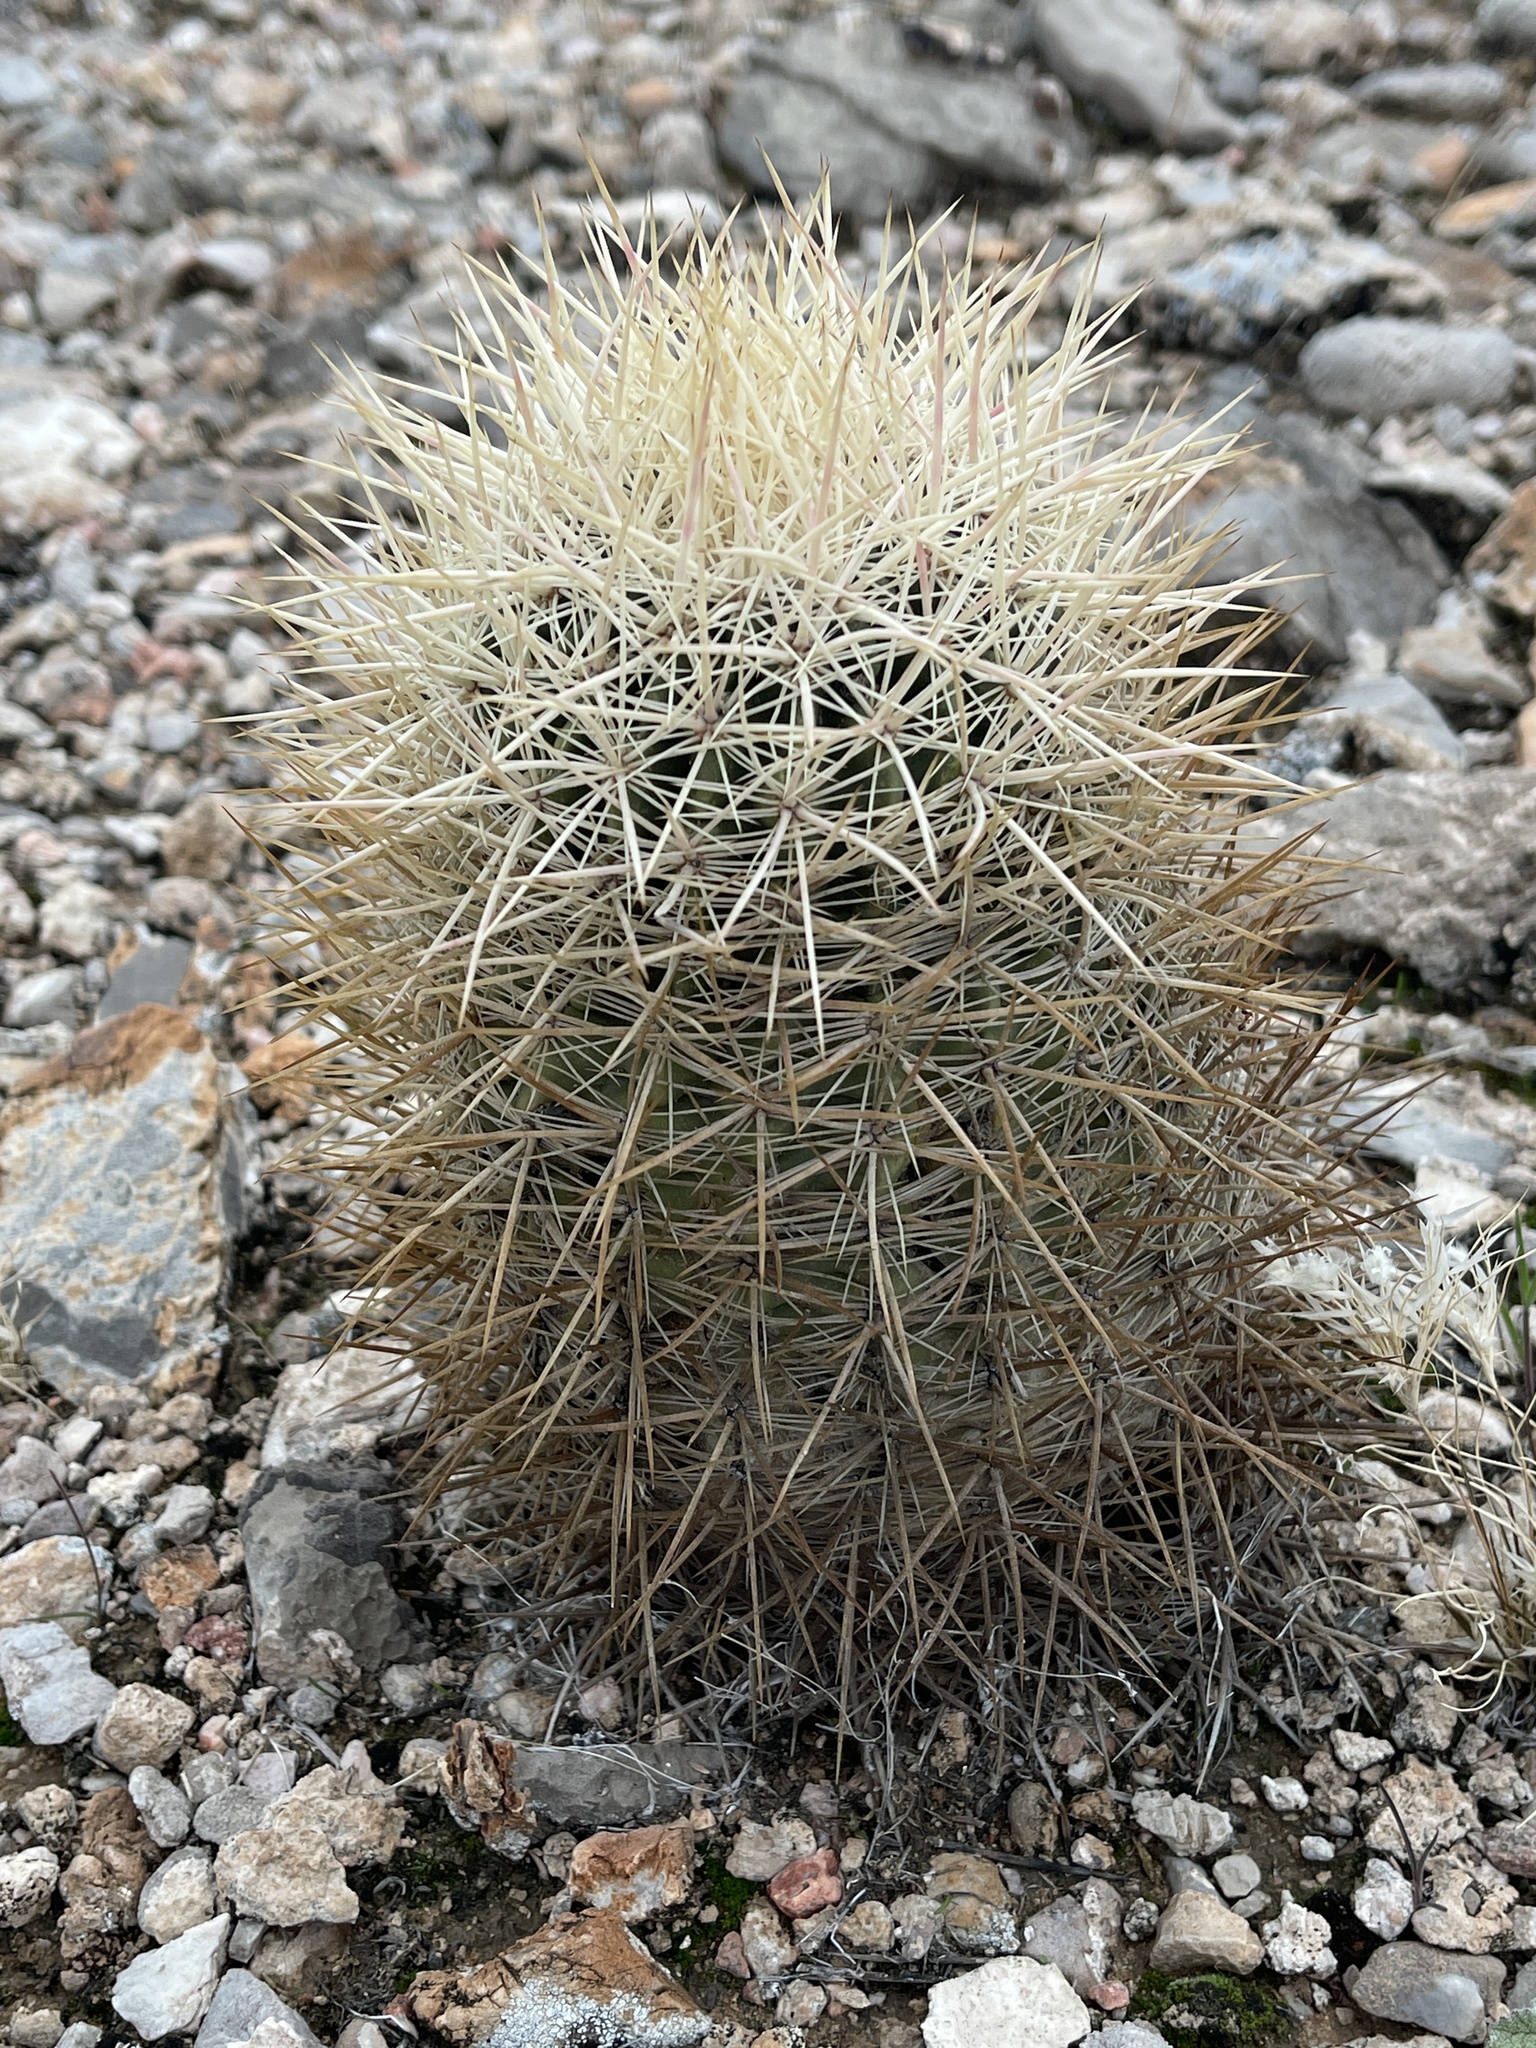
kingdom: Plantae
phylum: Tracheophyta
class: Magnoliopsida
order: Caryophyllales
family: Cactaceae
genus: Sclerocactus
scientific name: Sclerocactus johnsonii
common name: Eight-spine fishhook cactus
